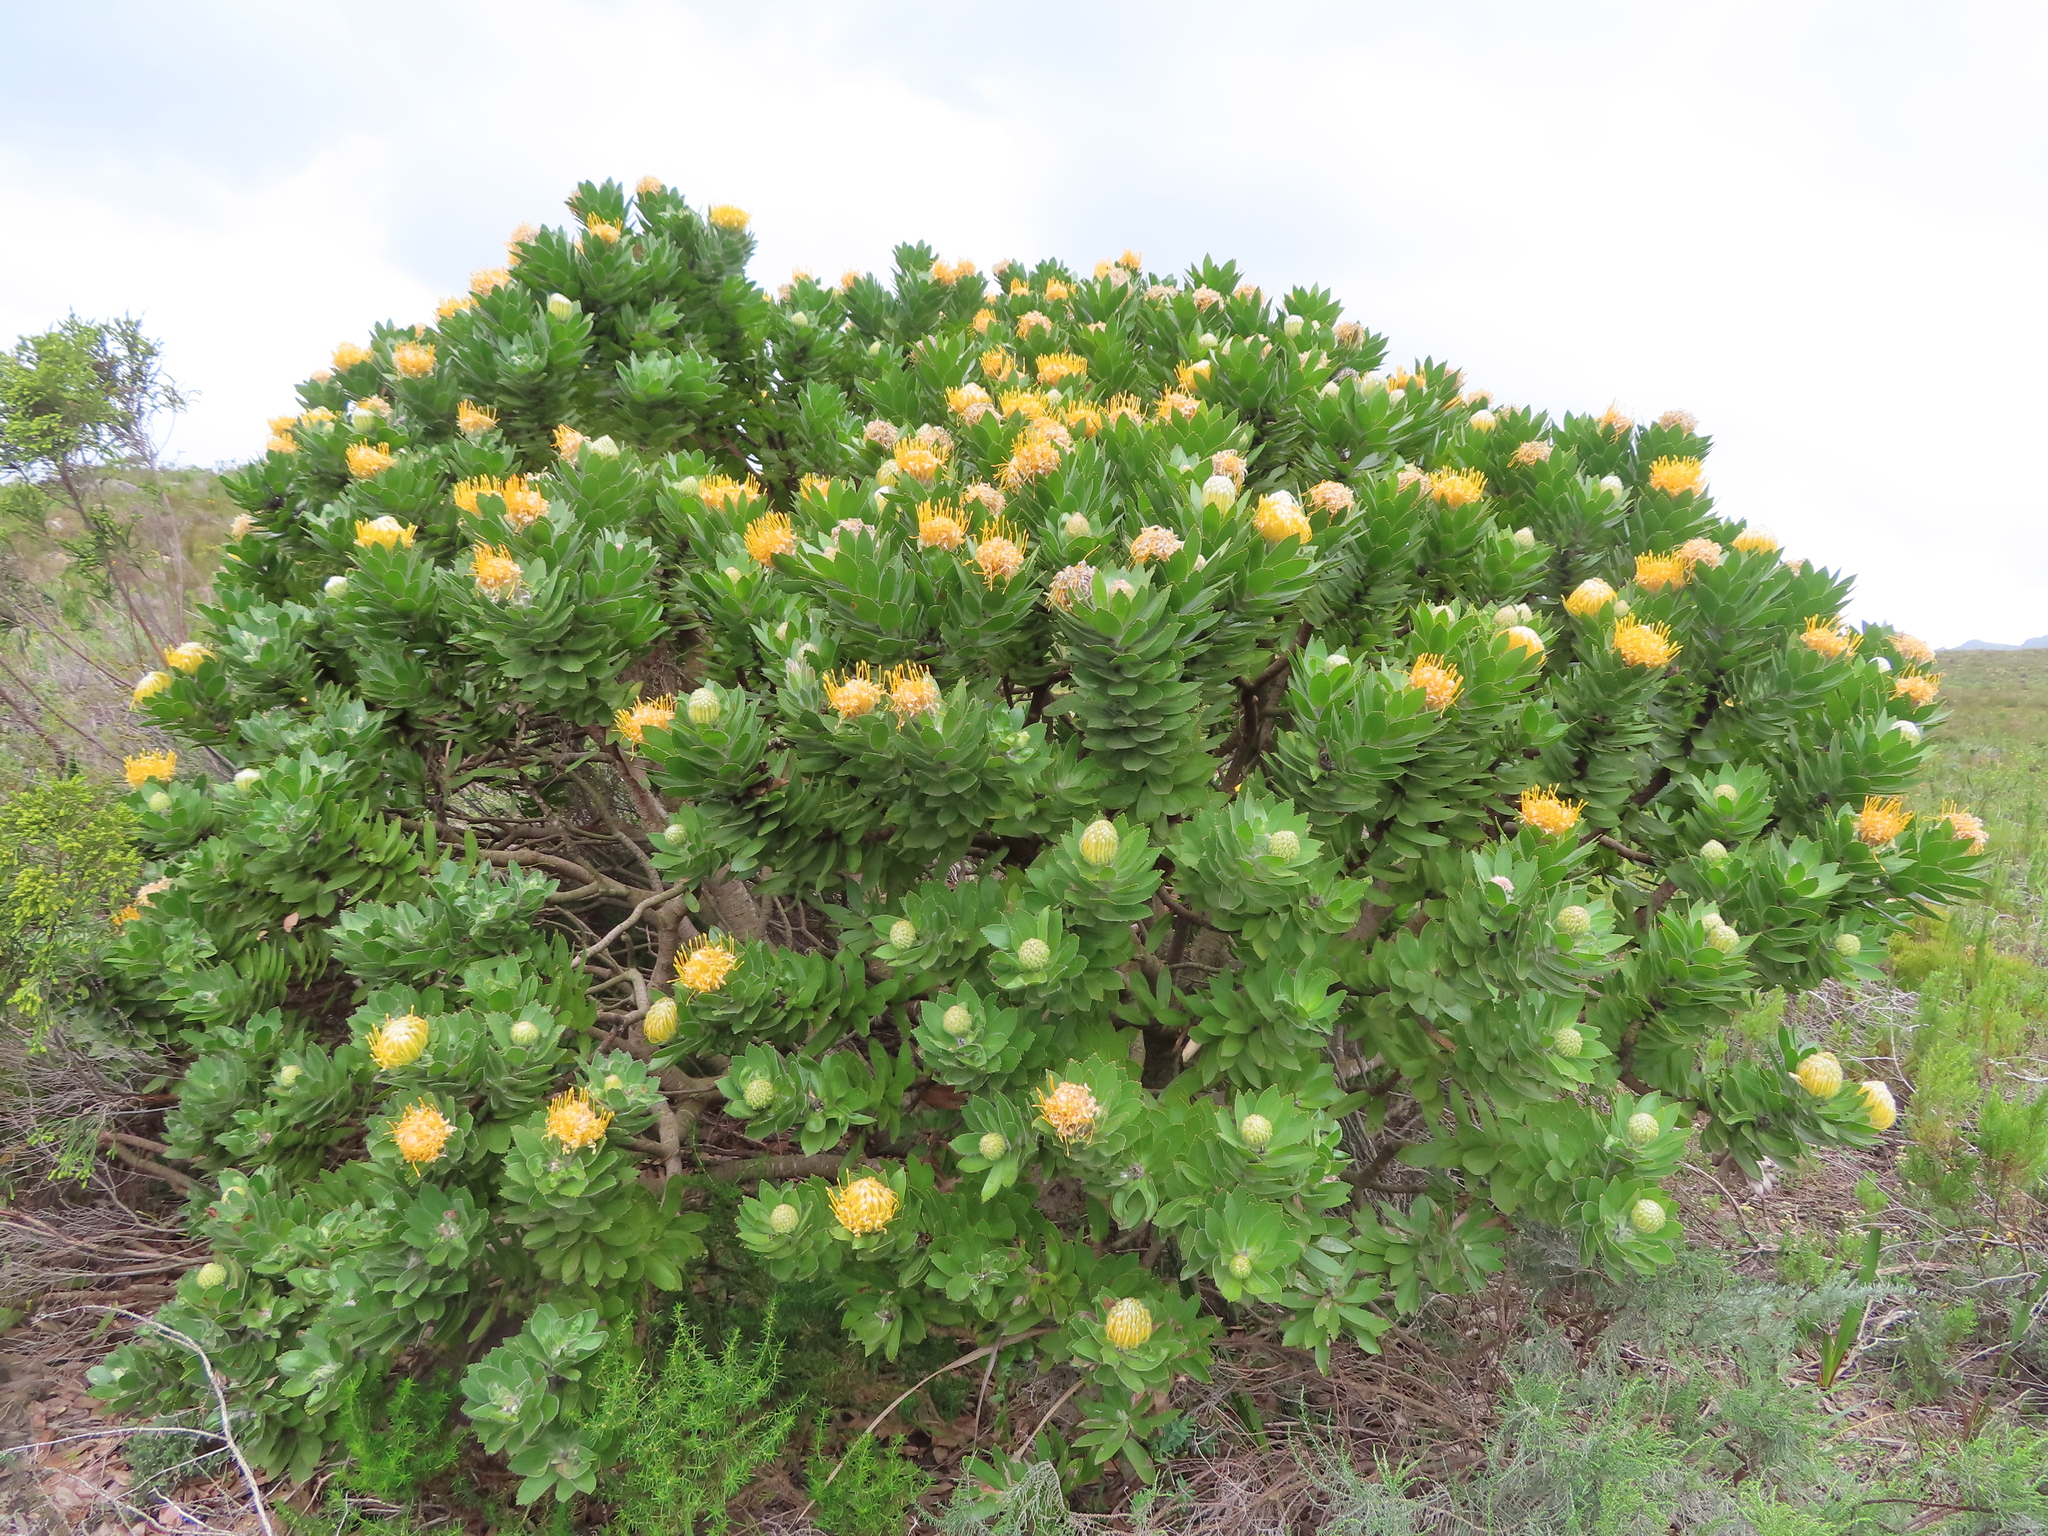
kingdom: Plantae
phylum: Tracheophyta
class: Magnoliopsida
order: Proteales
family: Proteaceae
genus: Leucospermum
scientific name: Leucospermum conocarpodendron
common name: Tree pincushion
